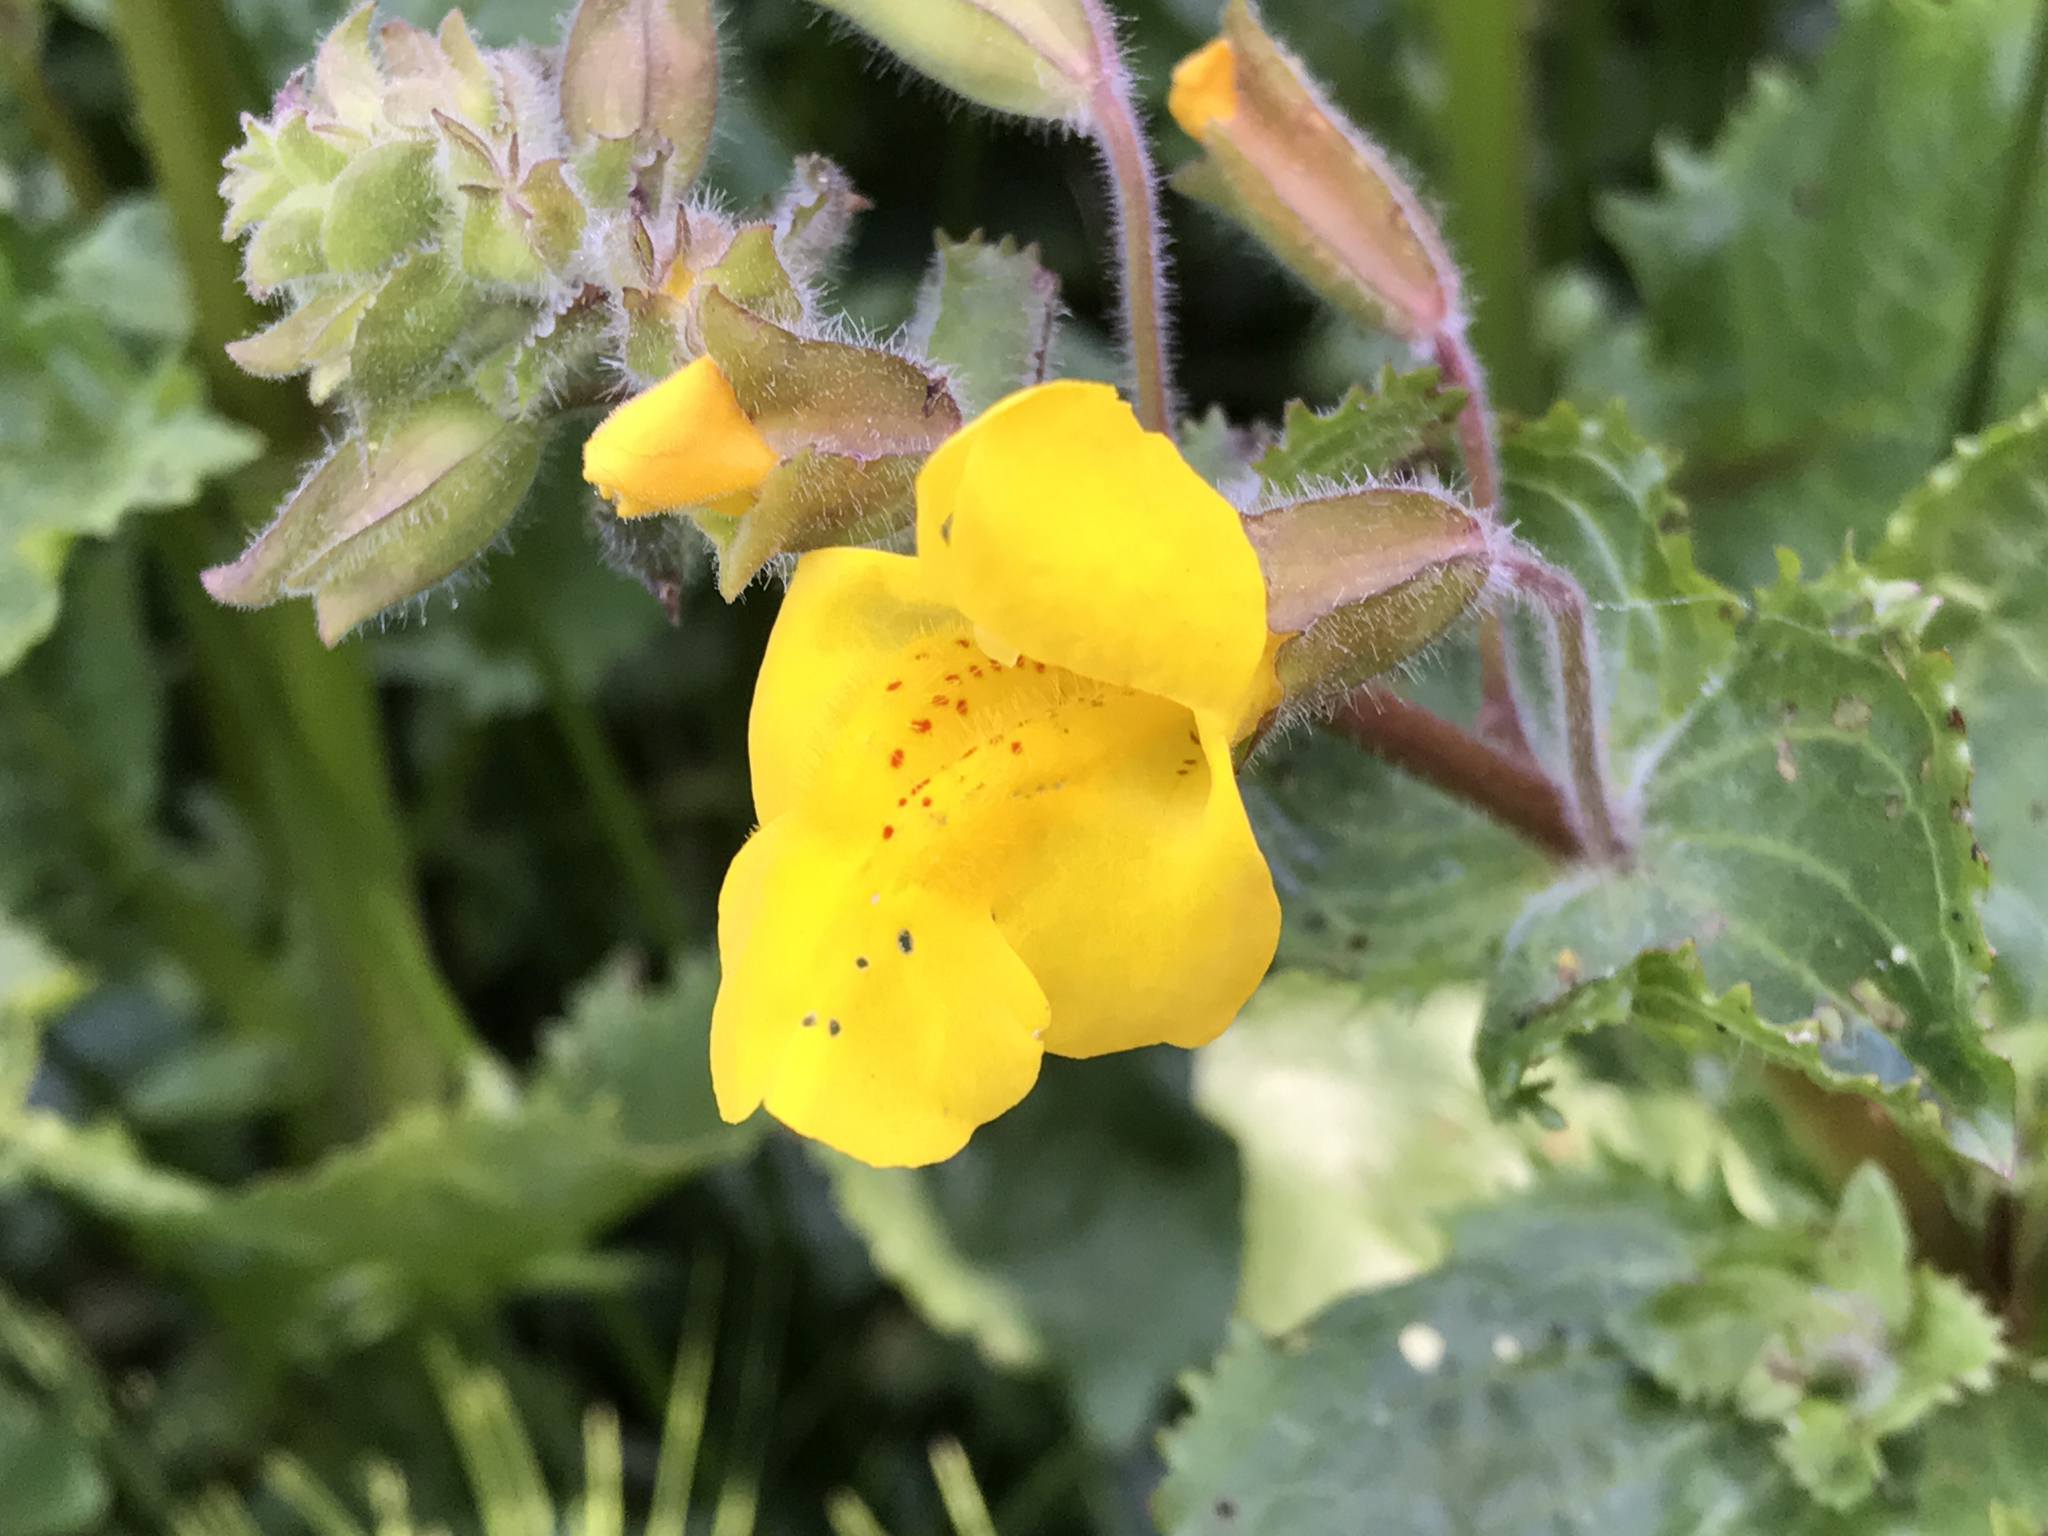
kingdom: Plantae
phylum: Tracheophyta
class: Magnoliopsida
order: Lamiales
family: Phrymaceae
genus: Erythranthe
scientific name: Erythranthe guttata
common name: Monkeyflower
